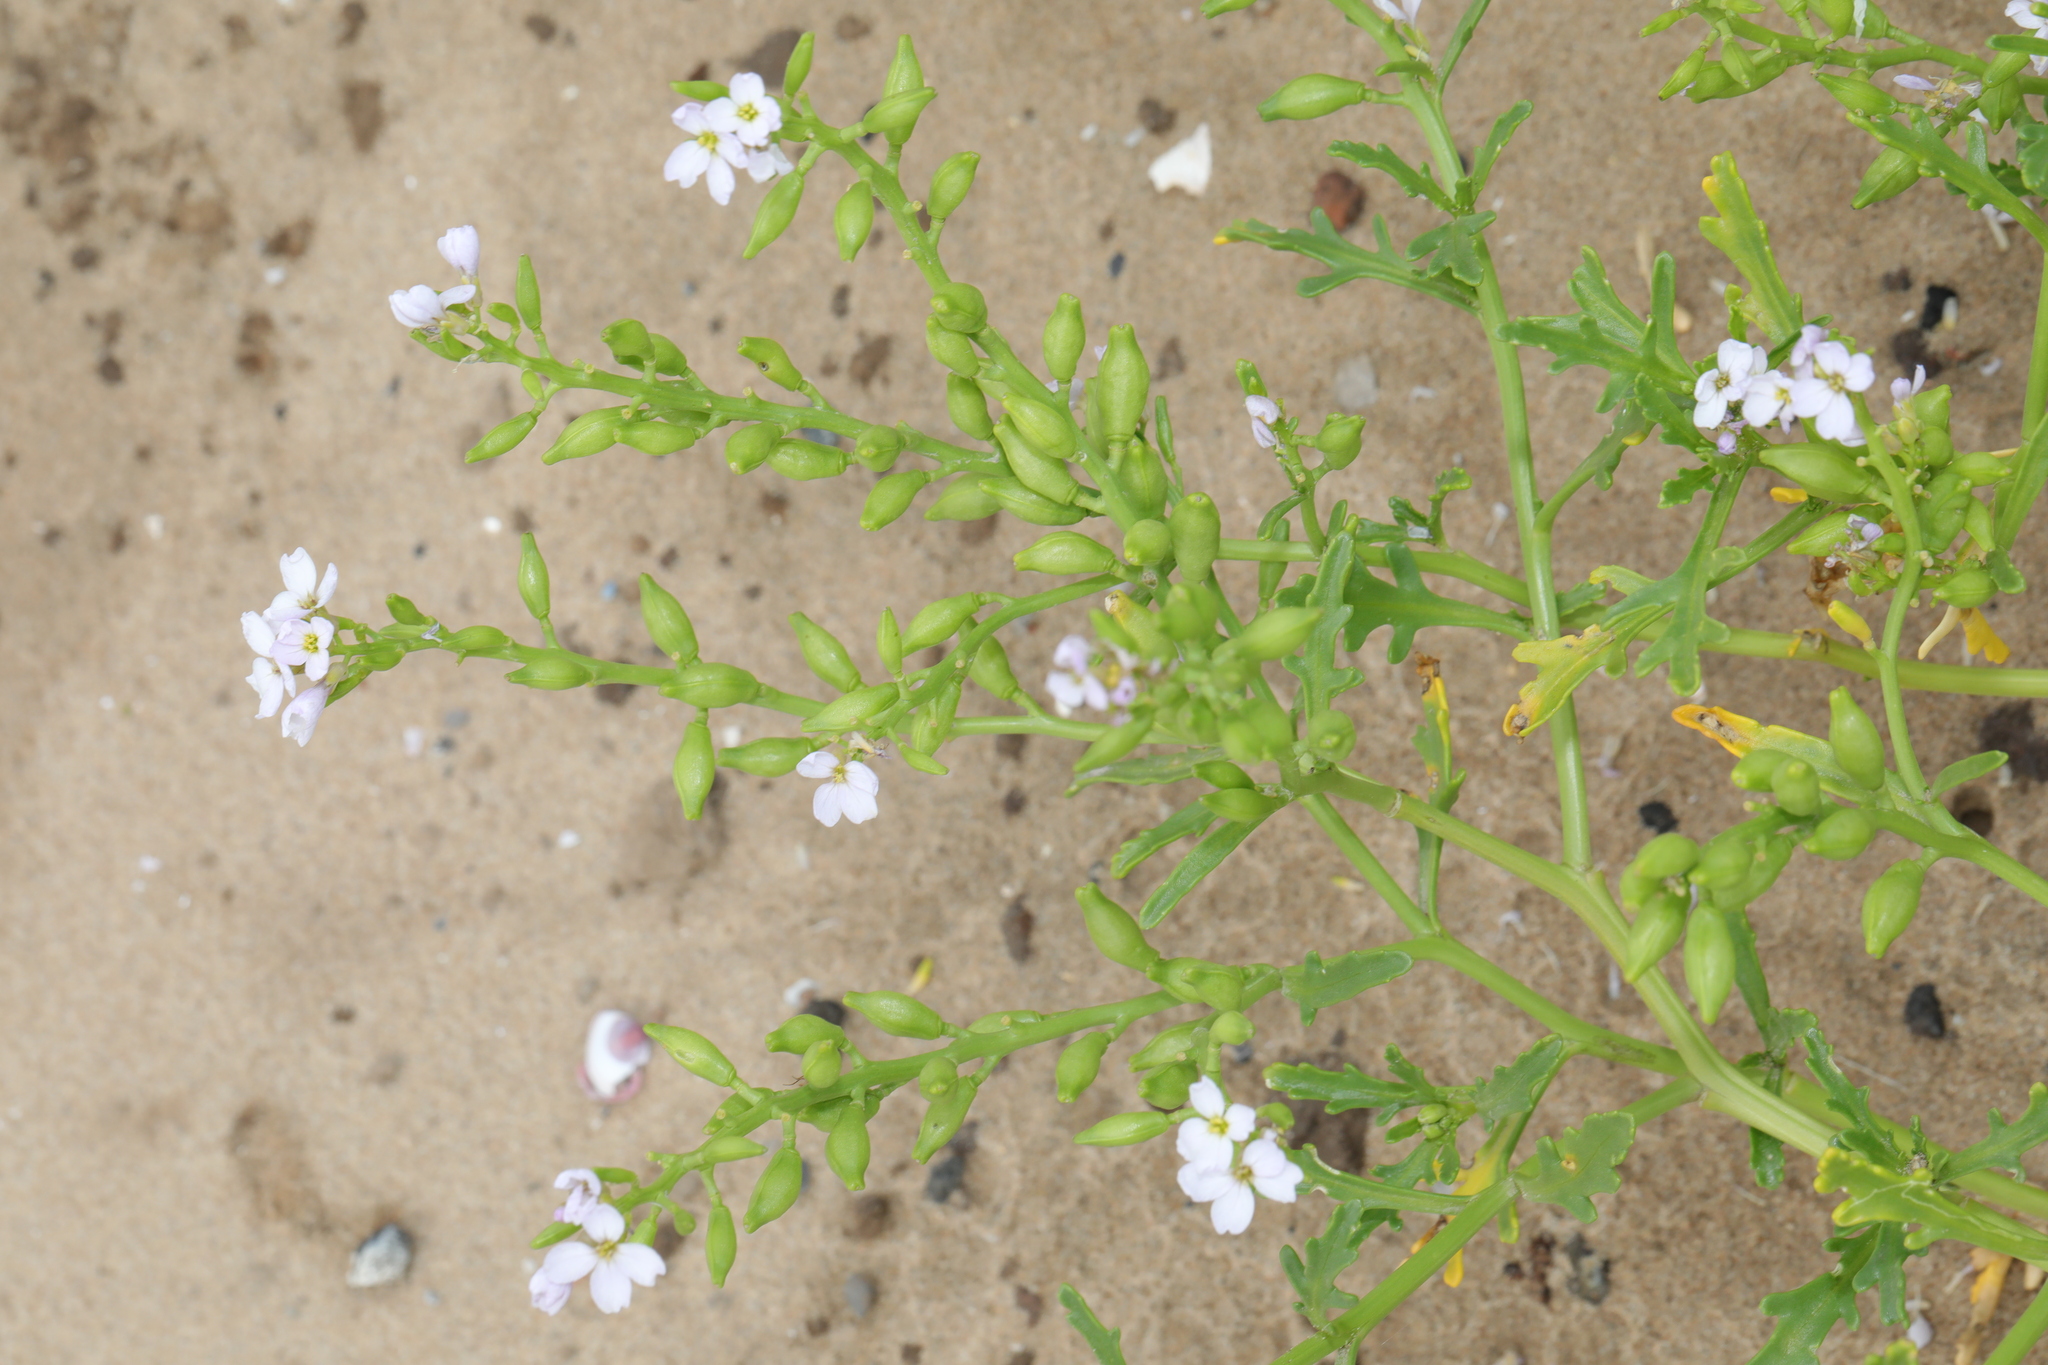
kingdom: Plantae
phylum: Tracheophyta
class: Magnoliopsida
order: Brassicales
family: Brassicaceae
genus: Cakile
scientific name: Cakile maritima
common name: Sea rocket
